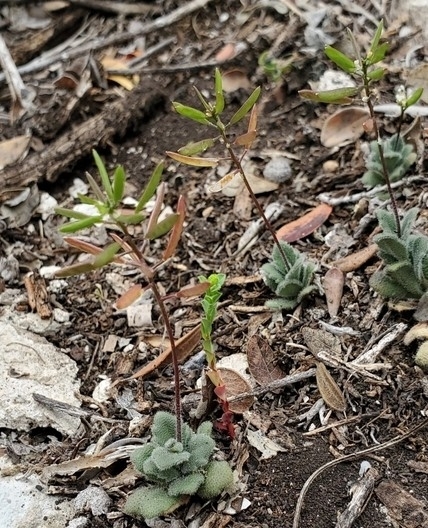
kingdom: Plantae
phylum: Tracheophyta
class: Magnoliopsida
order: Brassicales
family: Brassicaceae
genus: Tomostima
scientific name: Tomostima cuneifolia
